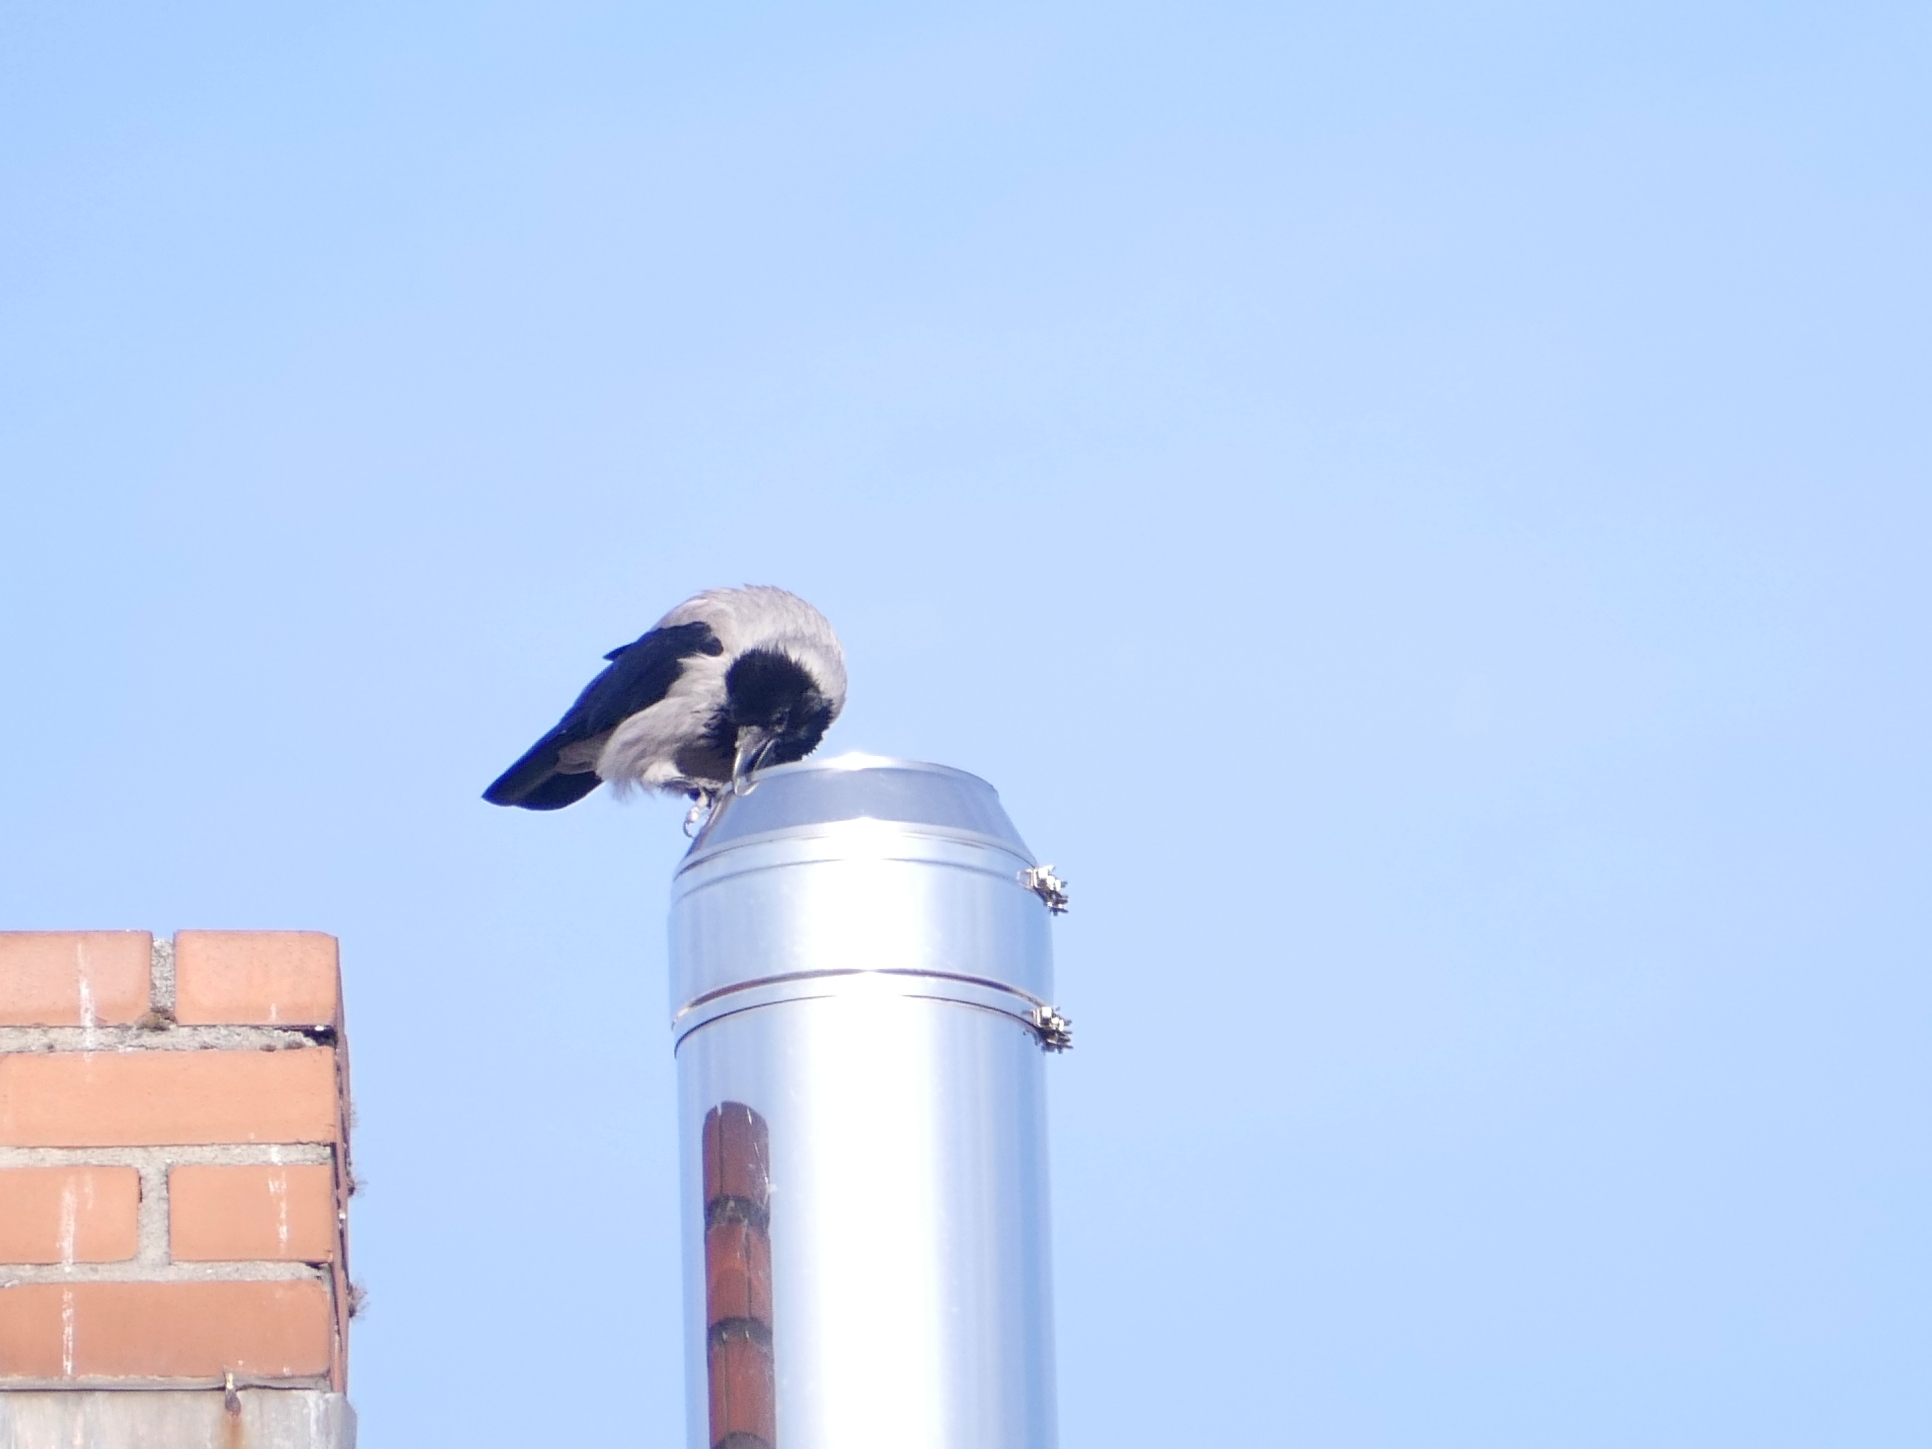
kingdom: Animalia
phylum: Chordata
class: Aves
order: Passeriformes
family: Corvidae
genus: Corvus
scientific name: Corvus cornix
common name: Hooded crow
